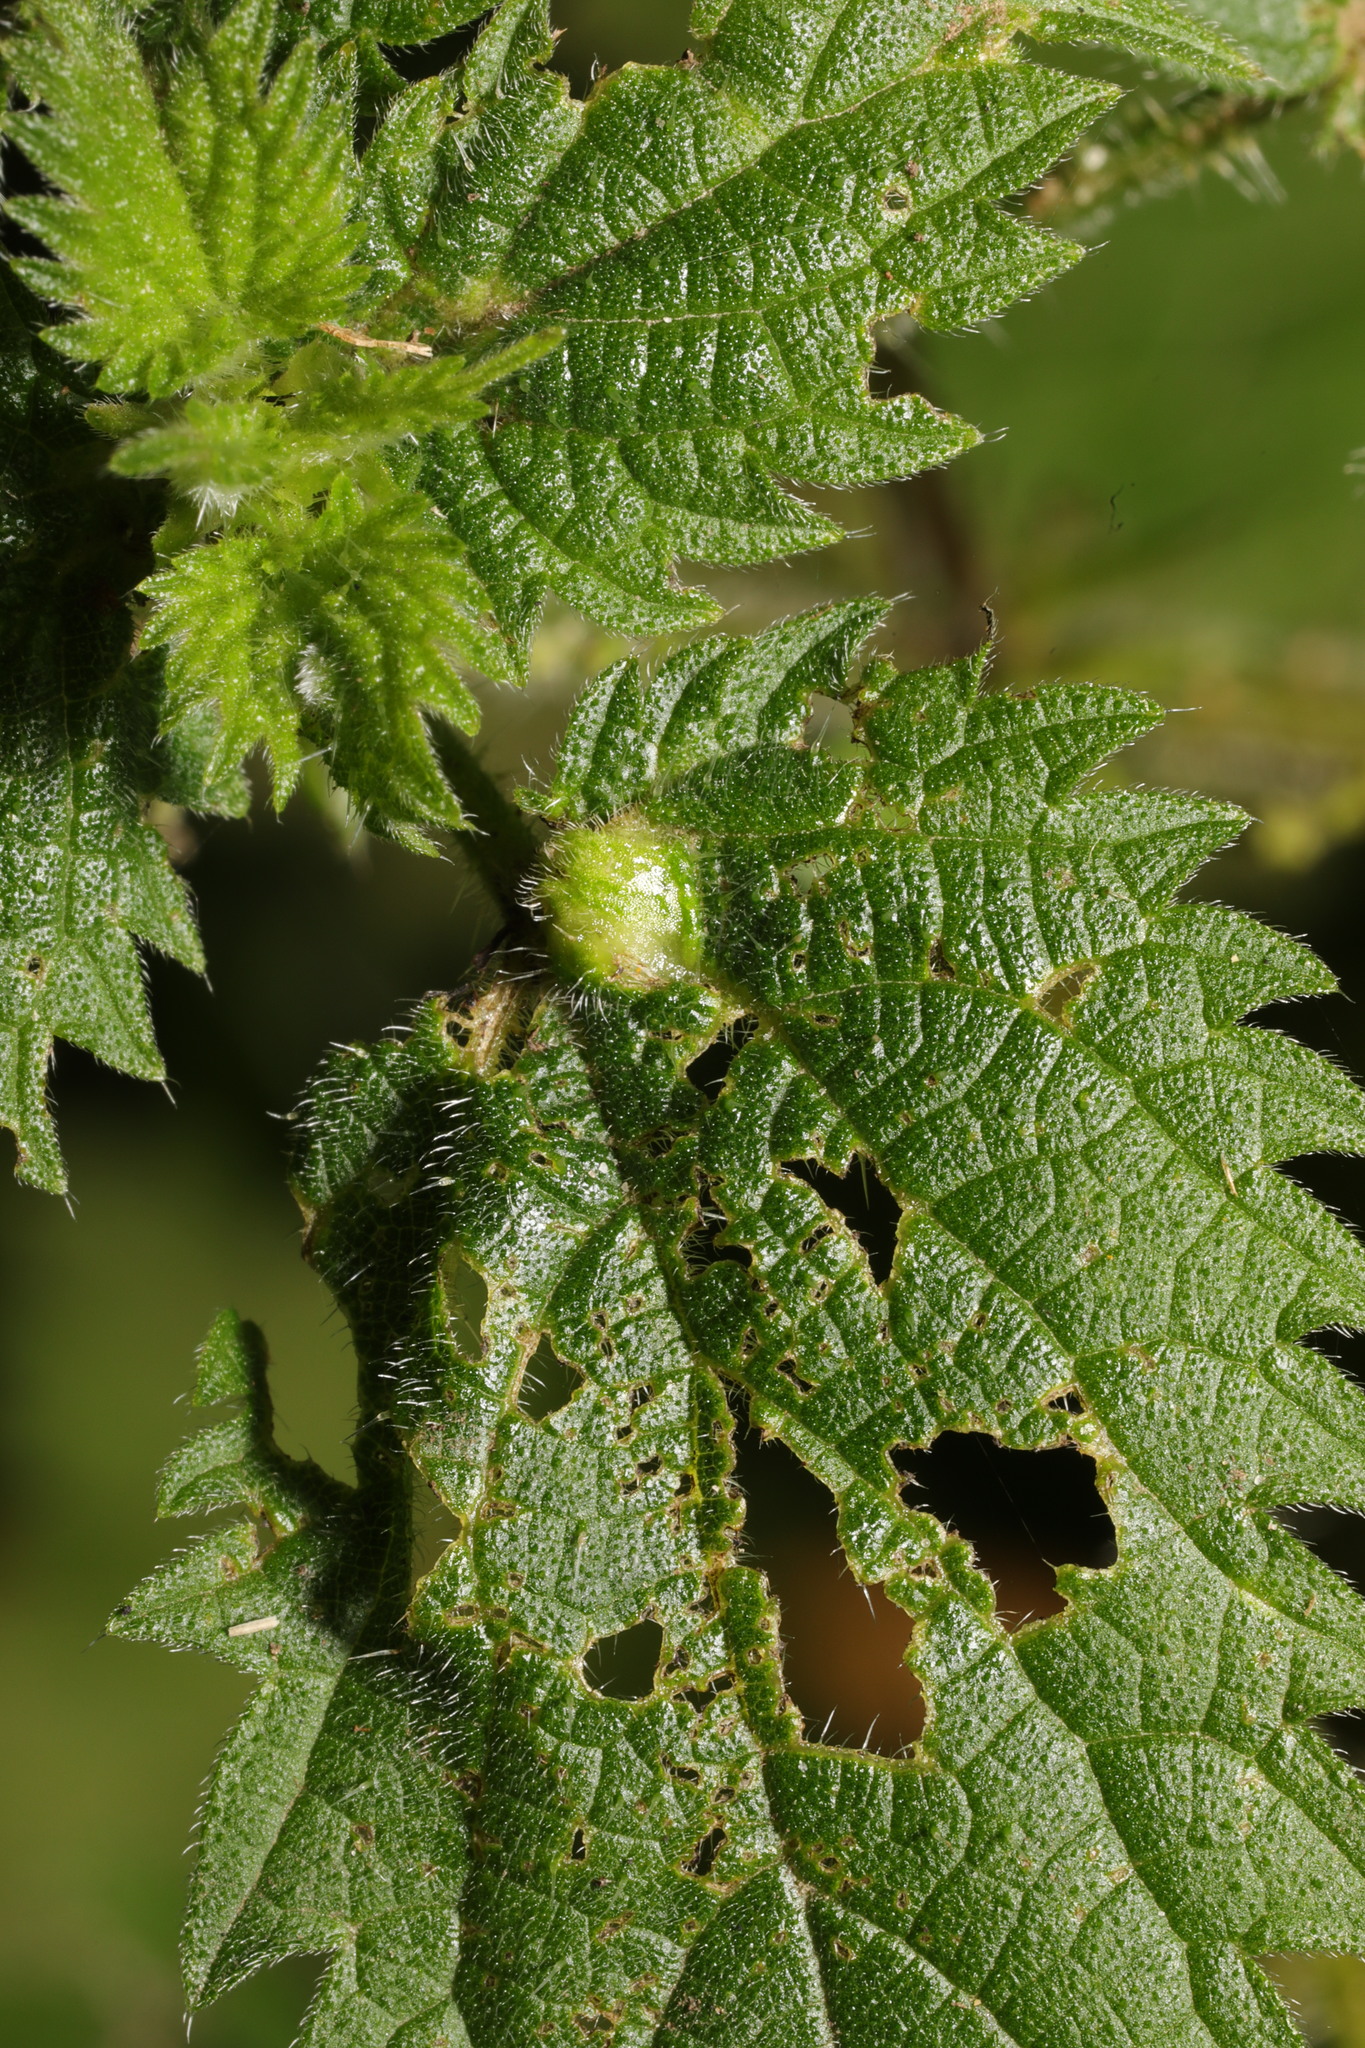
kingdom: Animalia
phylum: Arthropoda
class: Insecta
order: Diptera
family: Cecidomyiidae
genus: Dasineura
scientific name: Dasineura urticae
